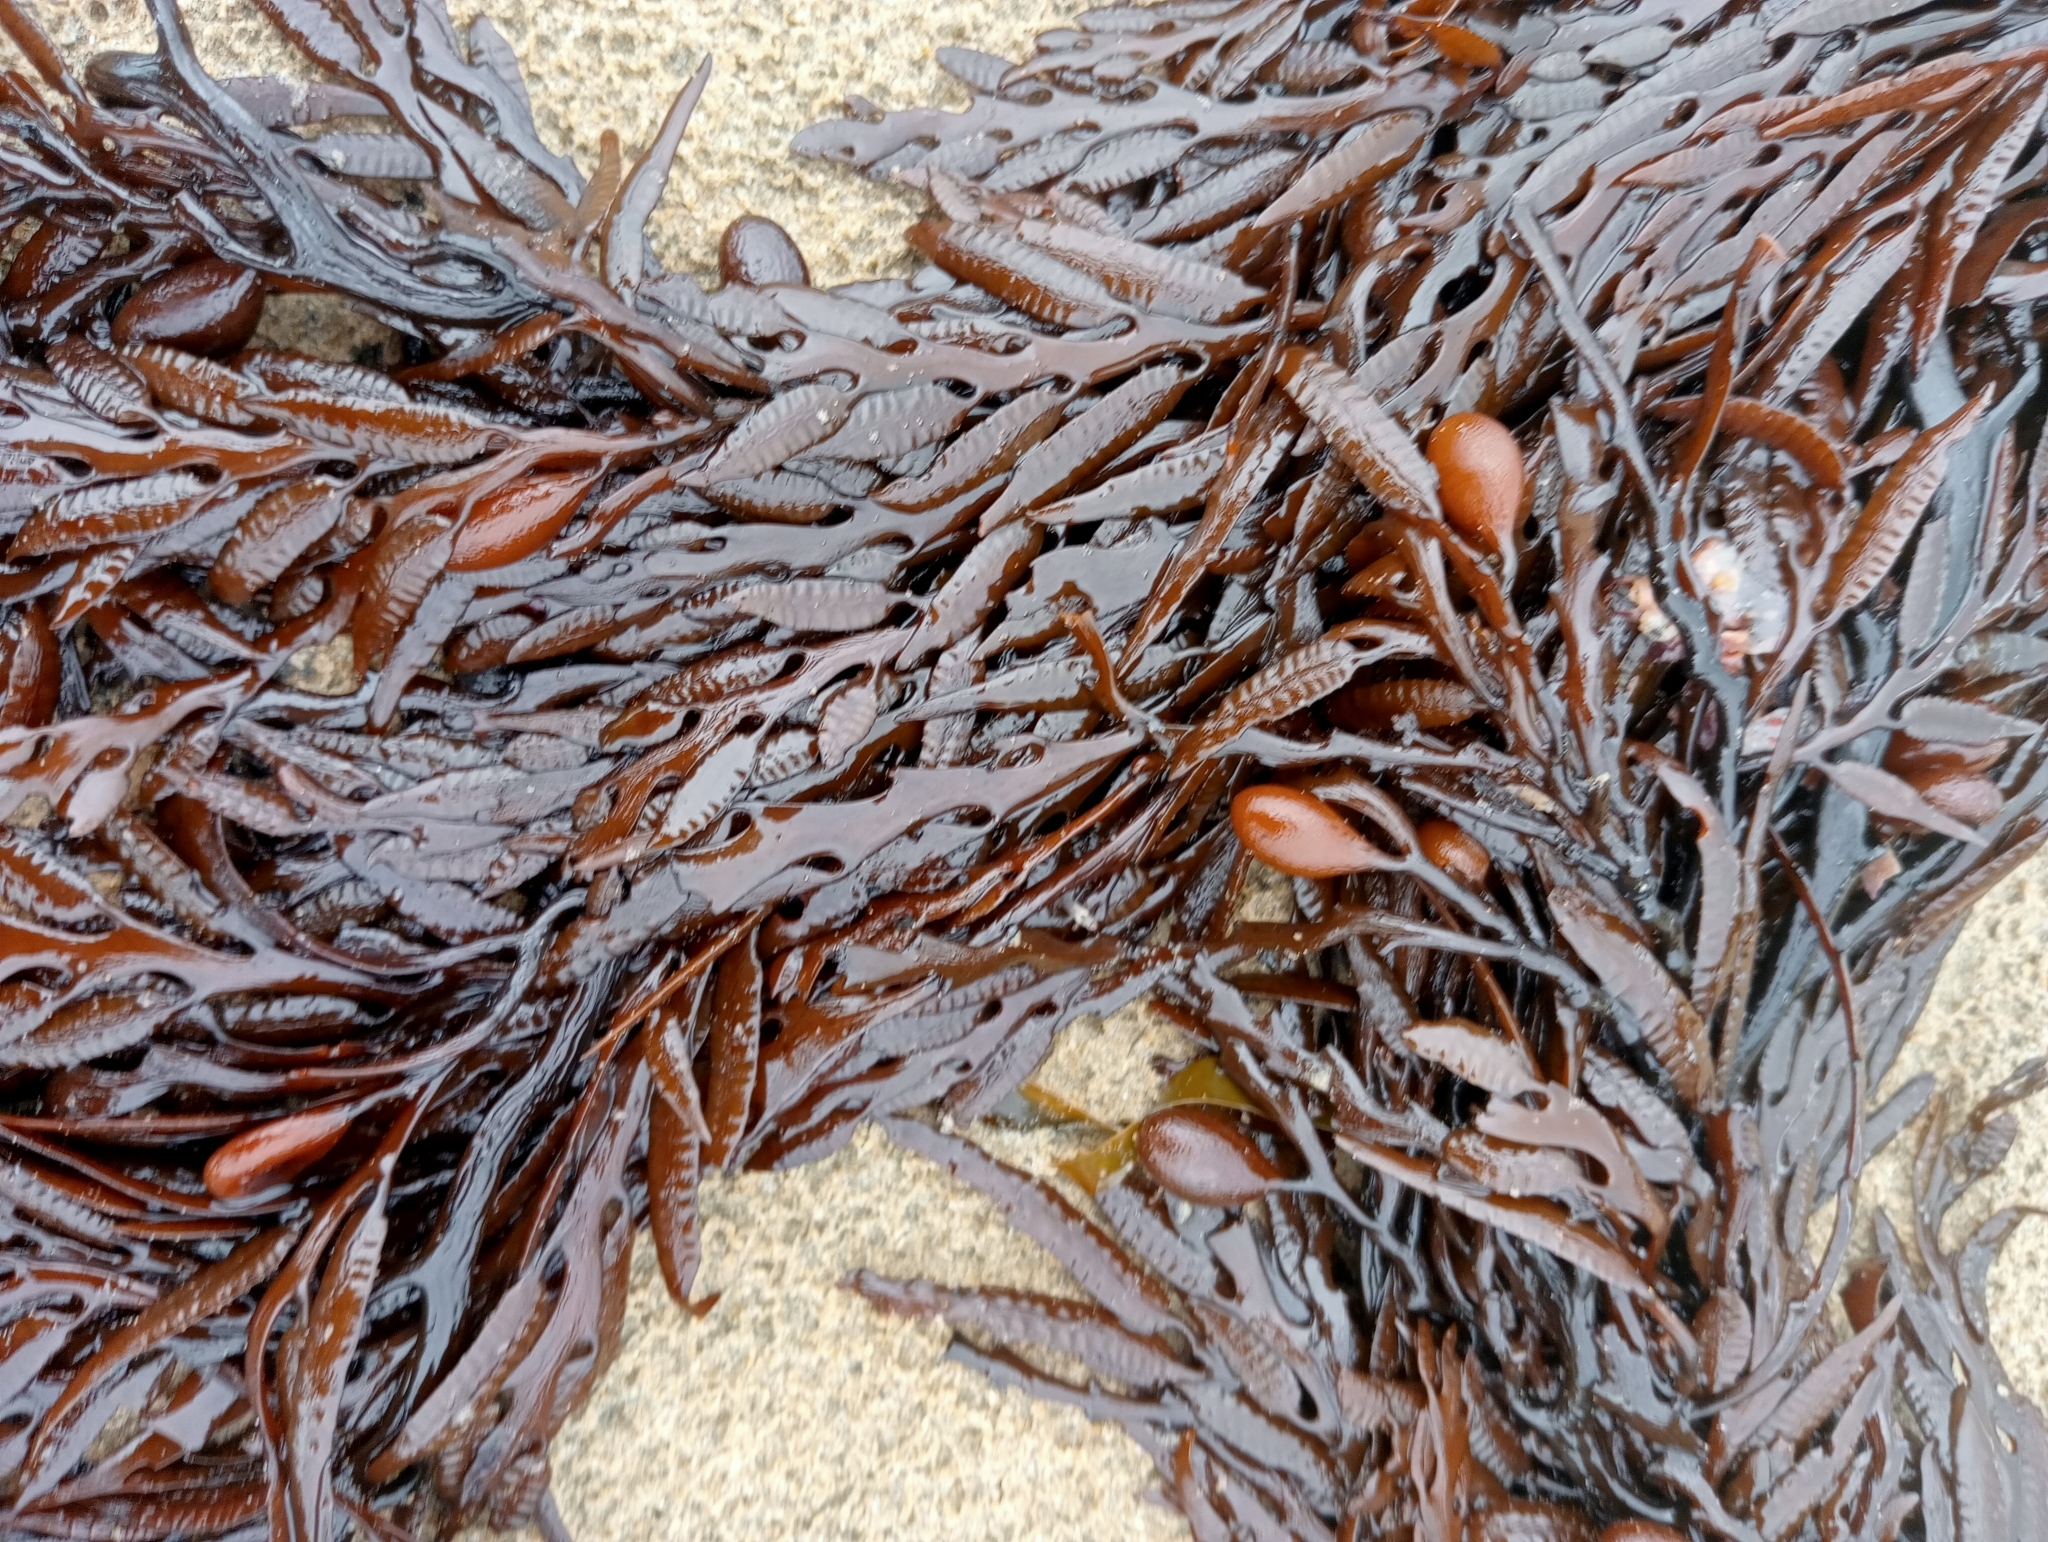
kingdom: Chromista
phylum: Ochrophyta
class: Phaeophyceae
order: Fucales
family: Sargassaceae
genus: Cystophora
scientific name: Cystophora platylobium
